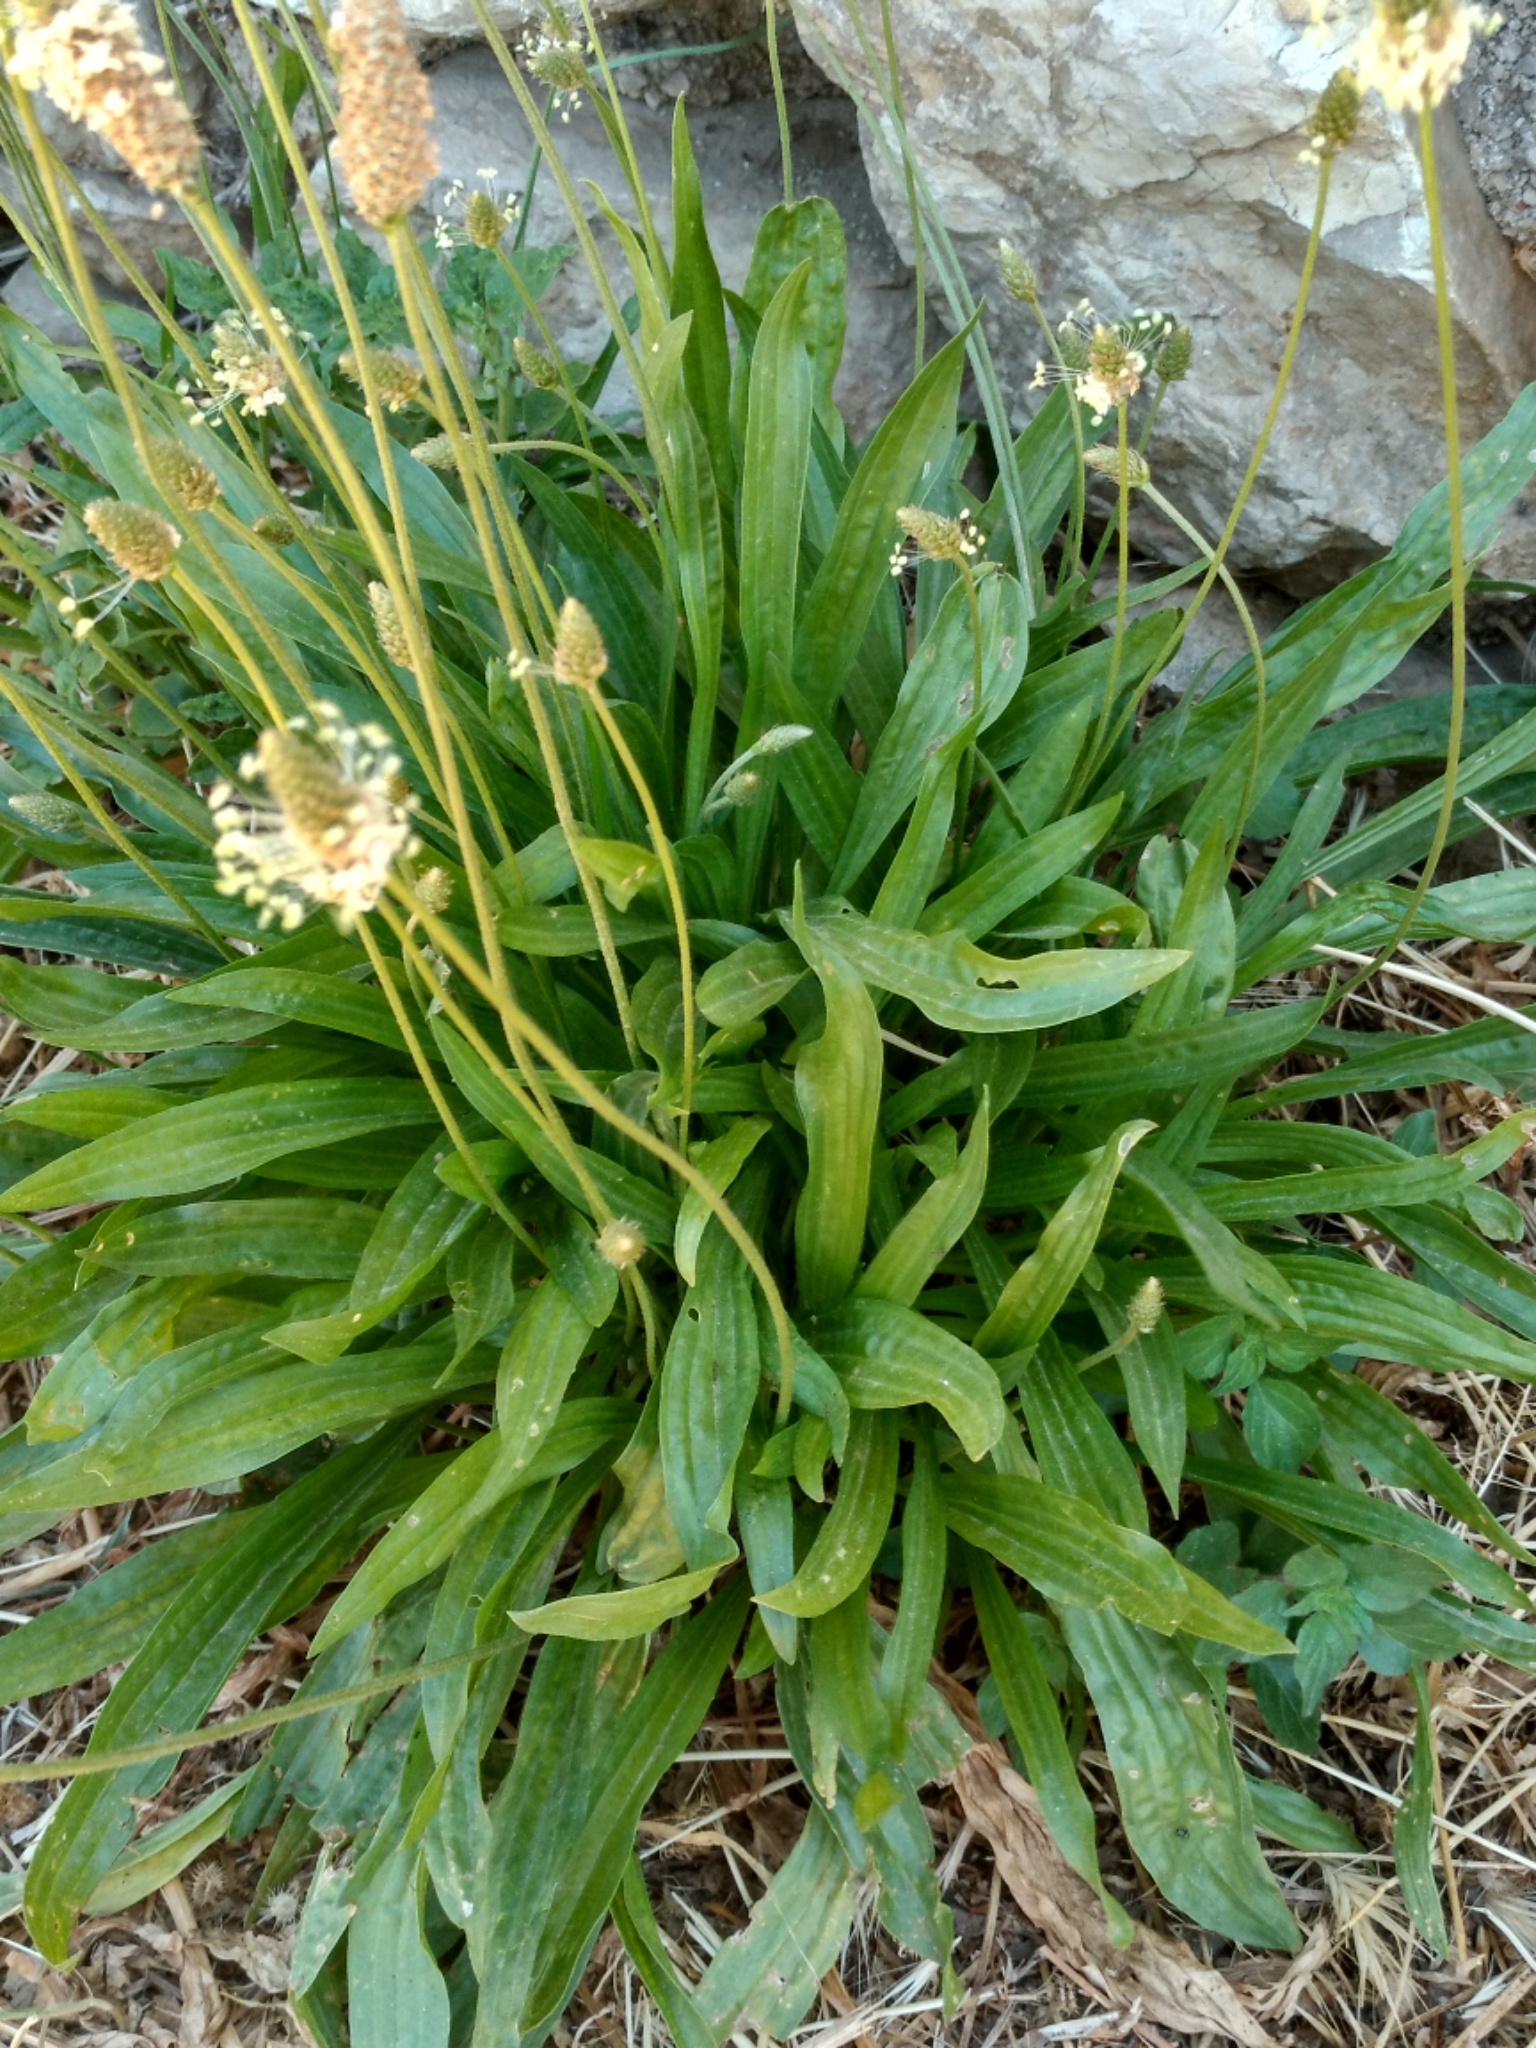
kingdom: Plantae
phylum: Tracheophyta
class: Magnoliopsida
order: Lamiales
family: Plantaginaceae
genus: Plantago
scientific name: Plantago lanceolata
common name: Ribwort plantain
